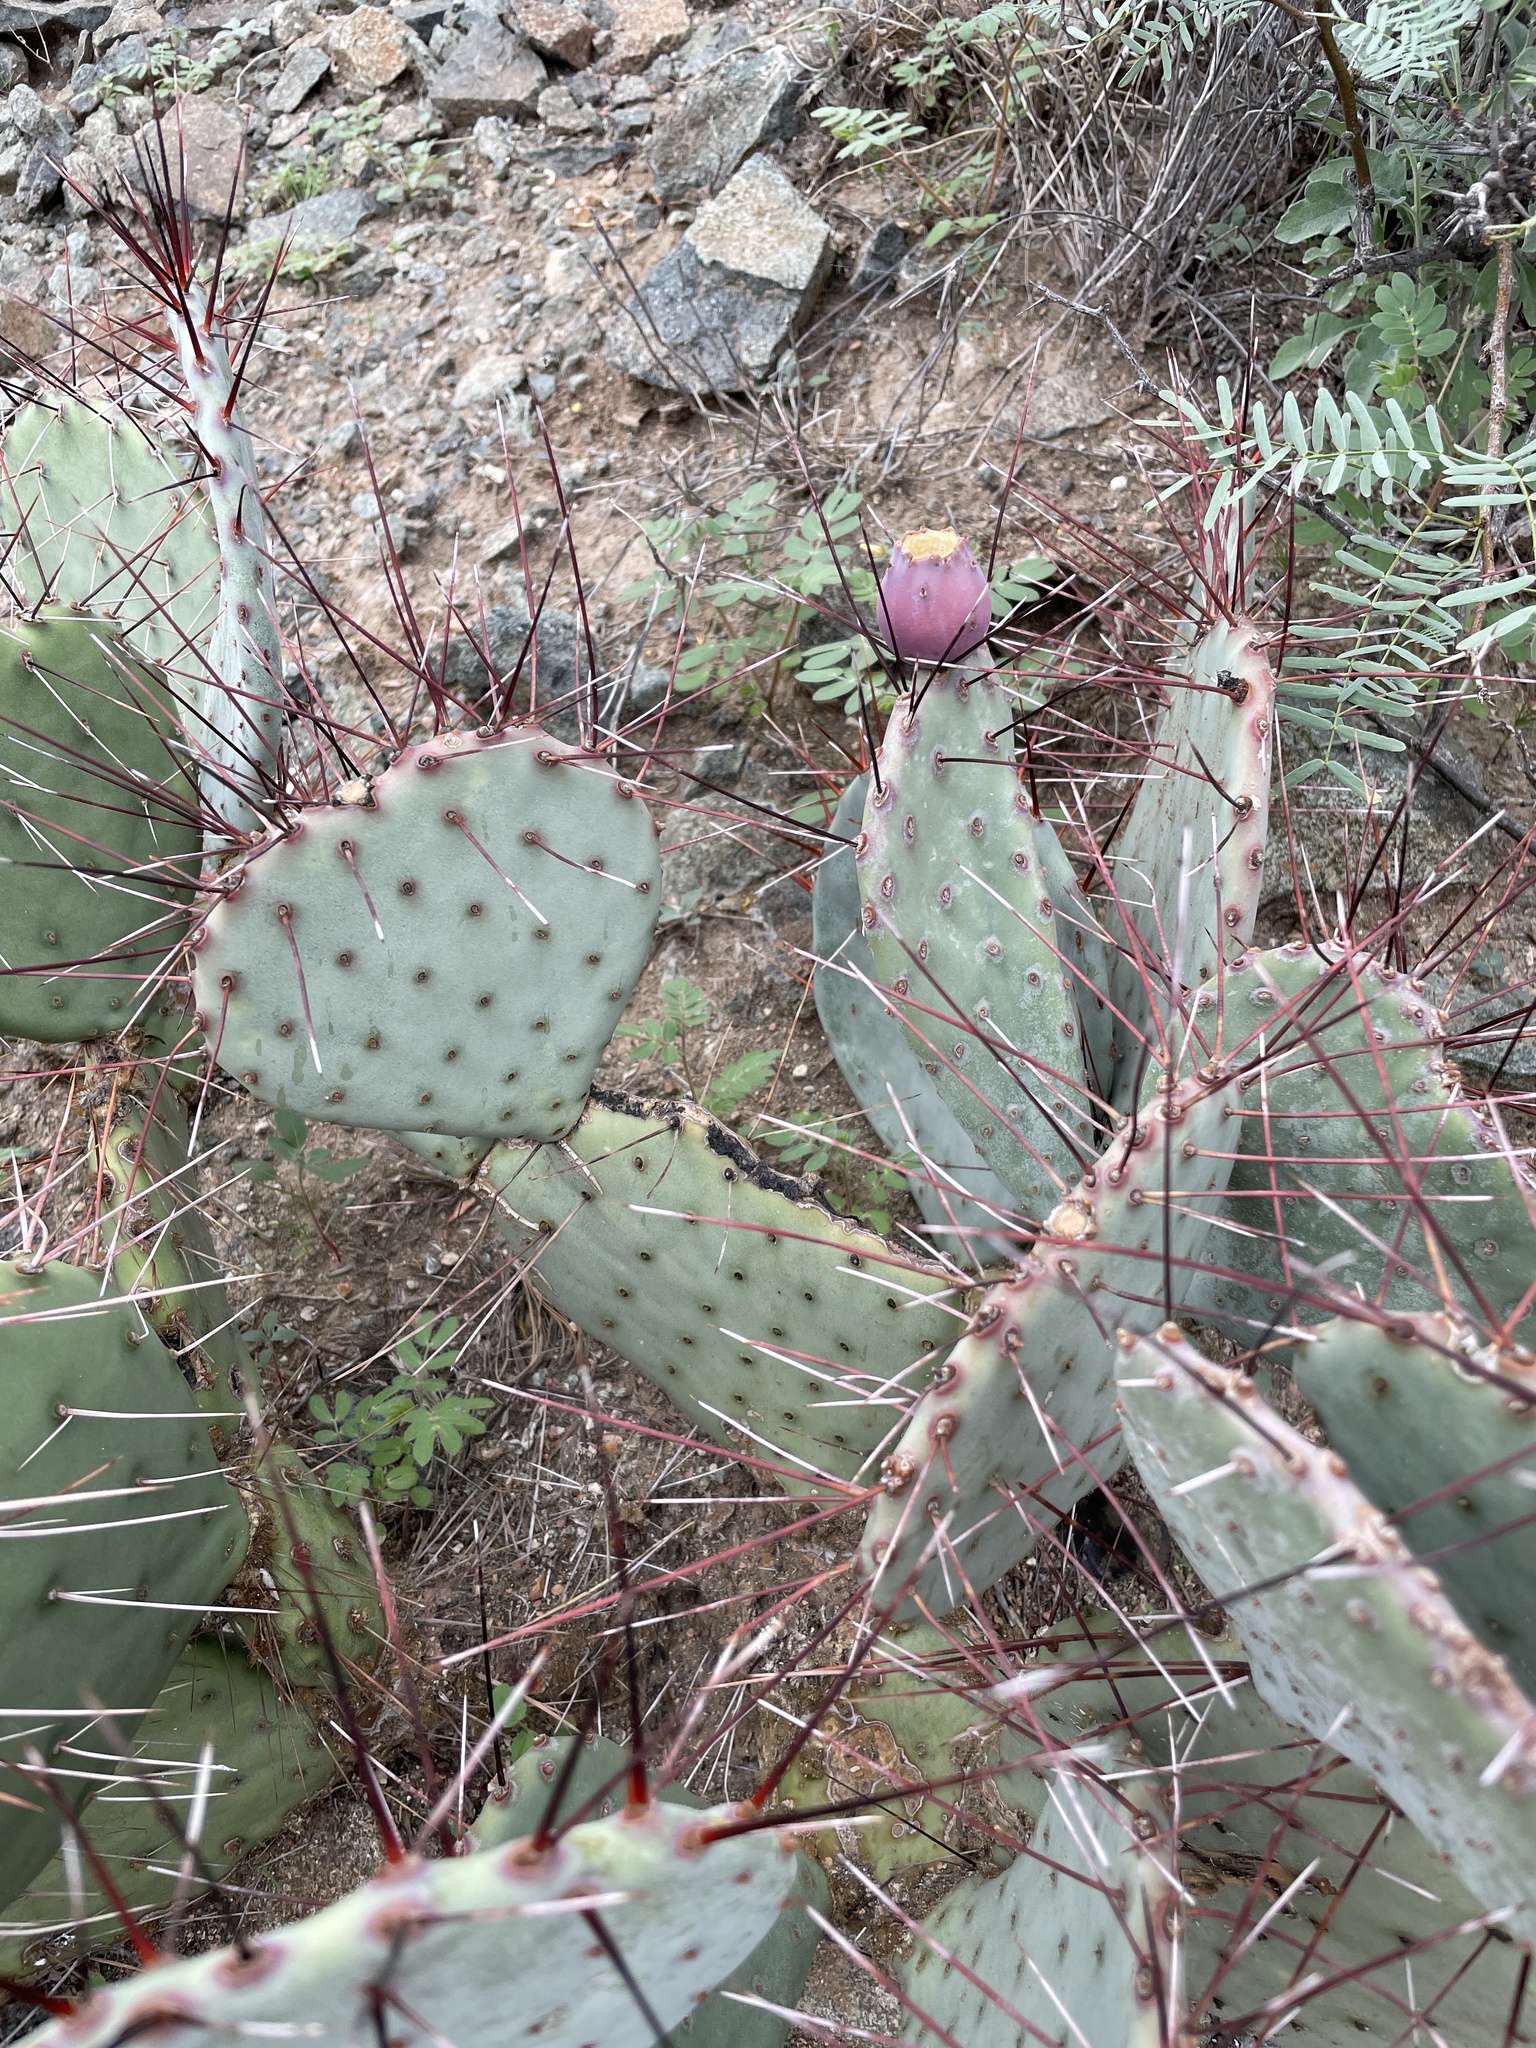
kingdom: Plantae
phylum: Tracheophyta
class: Magnoliopsida
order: Caryophyllales
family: Cactaceae
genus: Opuntia
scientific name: Opuntia phaeacantha
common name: New mexico prickly-pear
